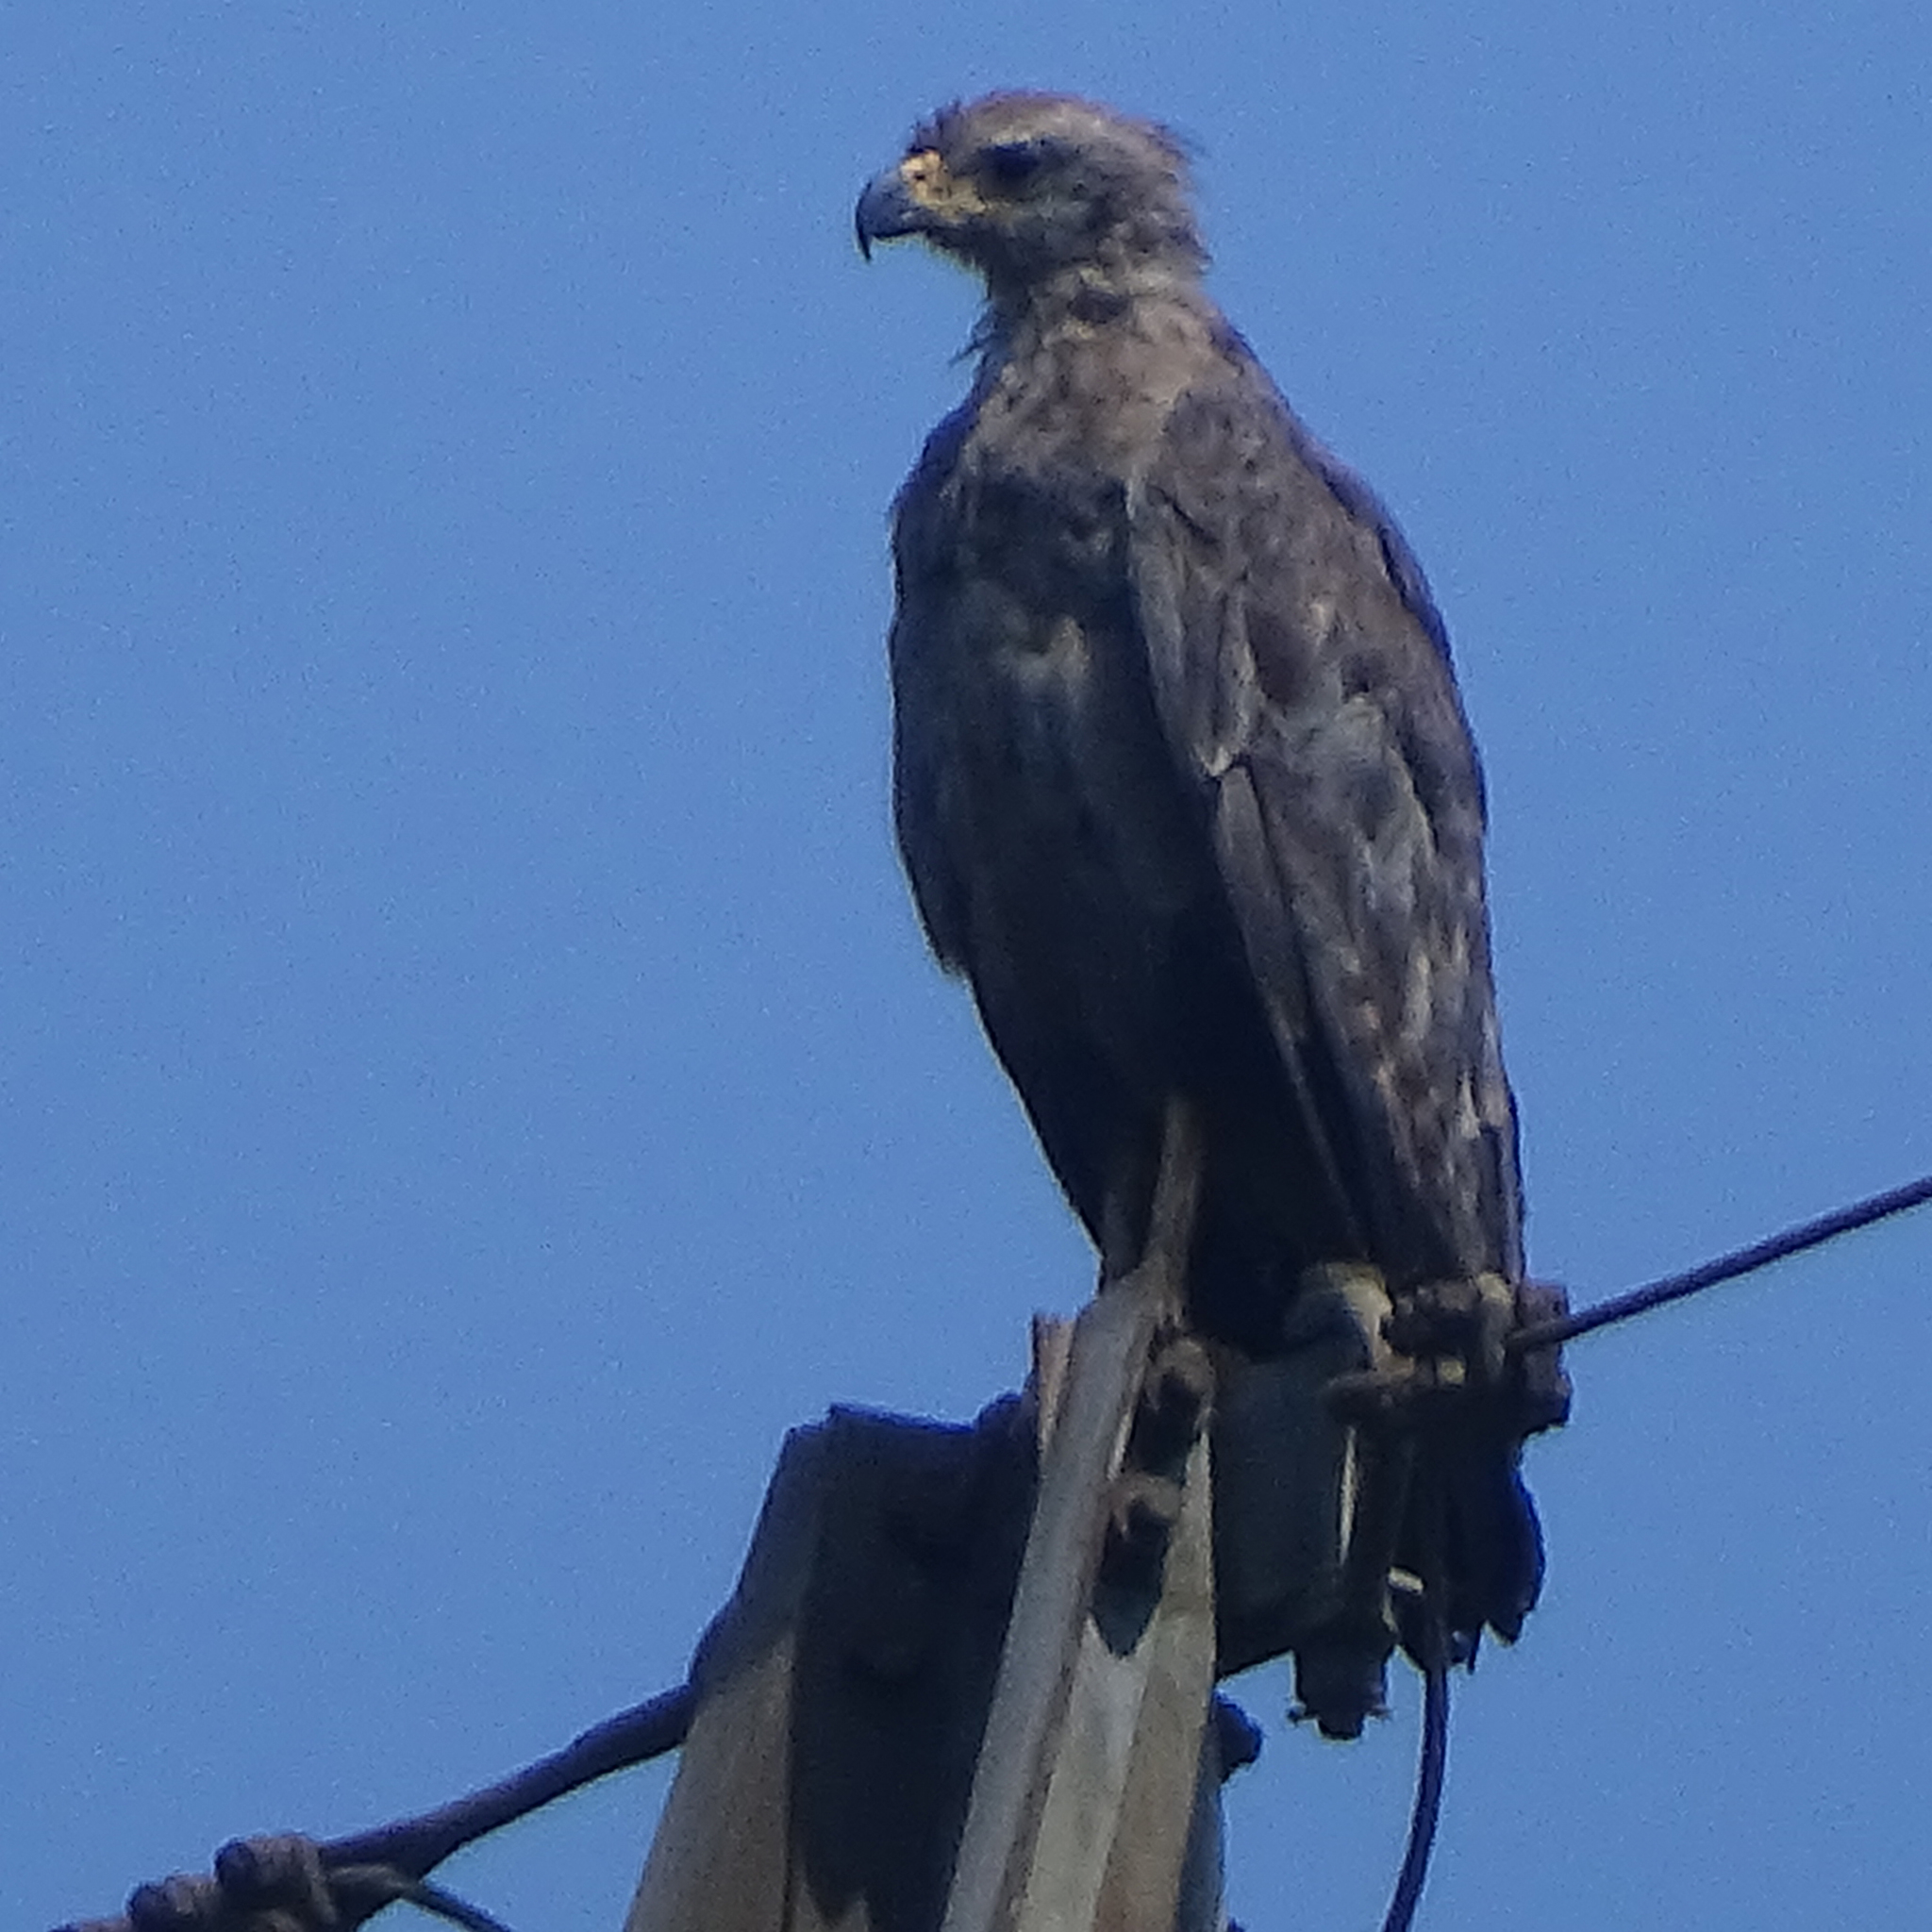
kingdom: Animalia
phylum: Chordata
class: Aves
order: Accipitriformes
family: Accipitridae
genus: Harpyhaliaetus
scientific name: Harpyhaliaetus coronatus
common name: Crowned solitary eagle
